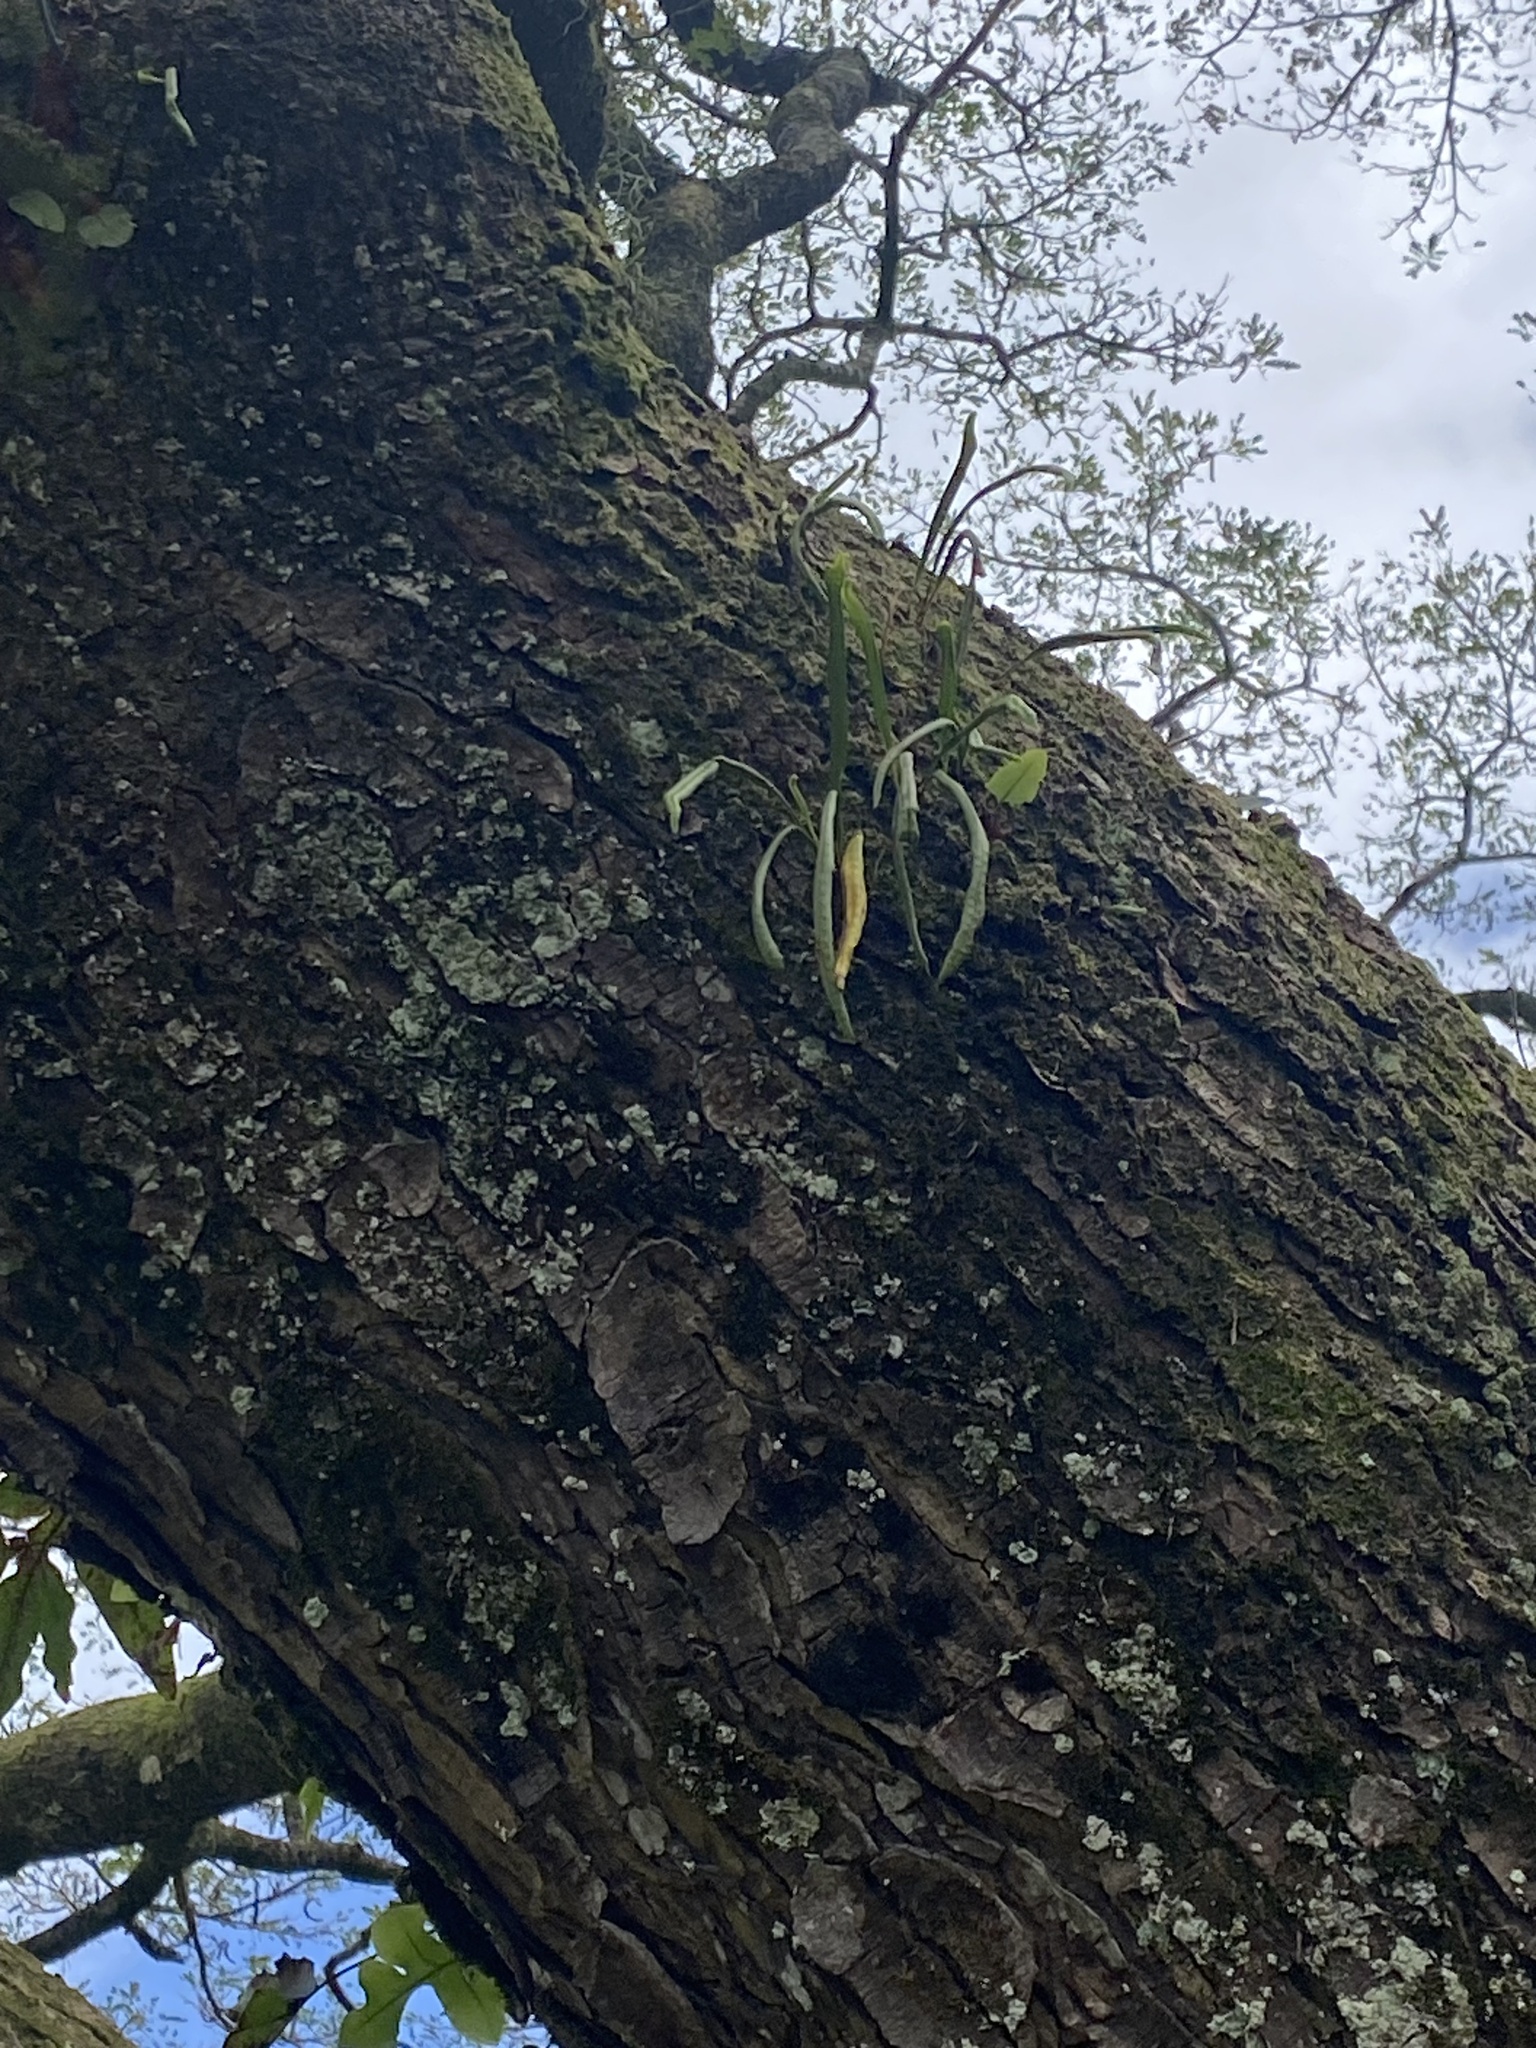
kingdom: Plantae
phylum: Tracheophyta
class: Polypodiopsida
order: Polypodiales
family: Polypodiaceae
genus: Lepisorus
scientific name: Lepisorus thunbergianus
